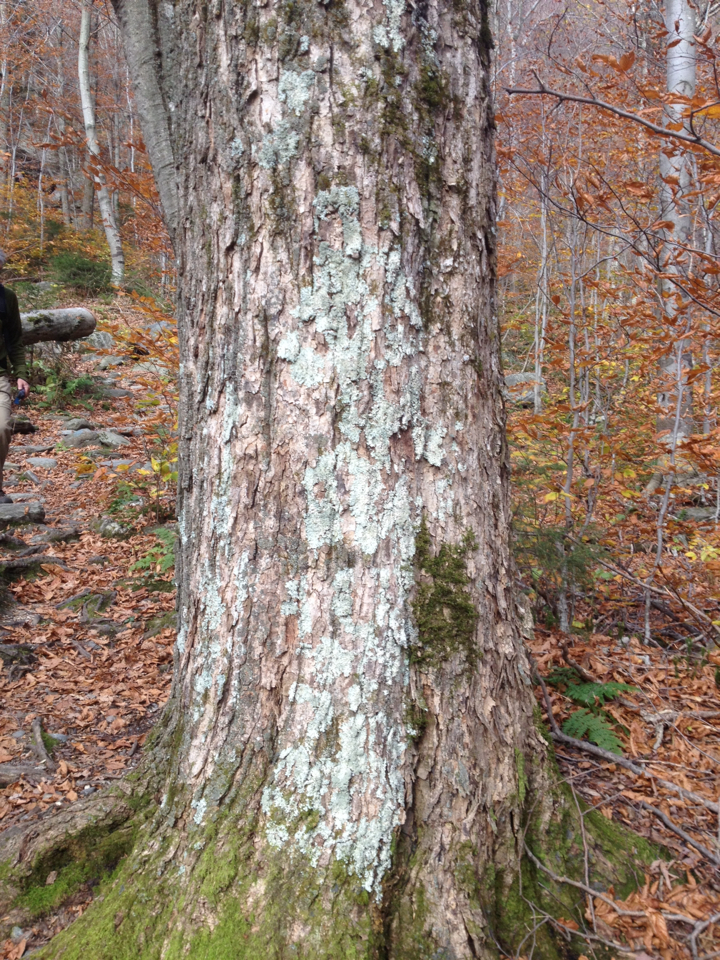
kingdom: Plantae
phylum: Tracheophyta
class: Magnoliopsida
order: Sapindales
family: Sapindaceae
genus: Acer
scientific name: Acer saccharum
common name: Sugar maple
